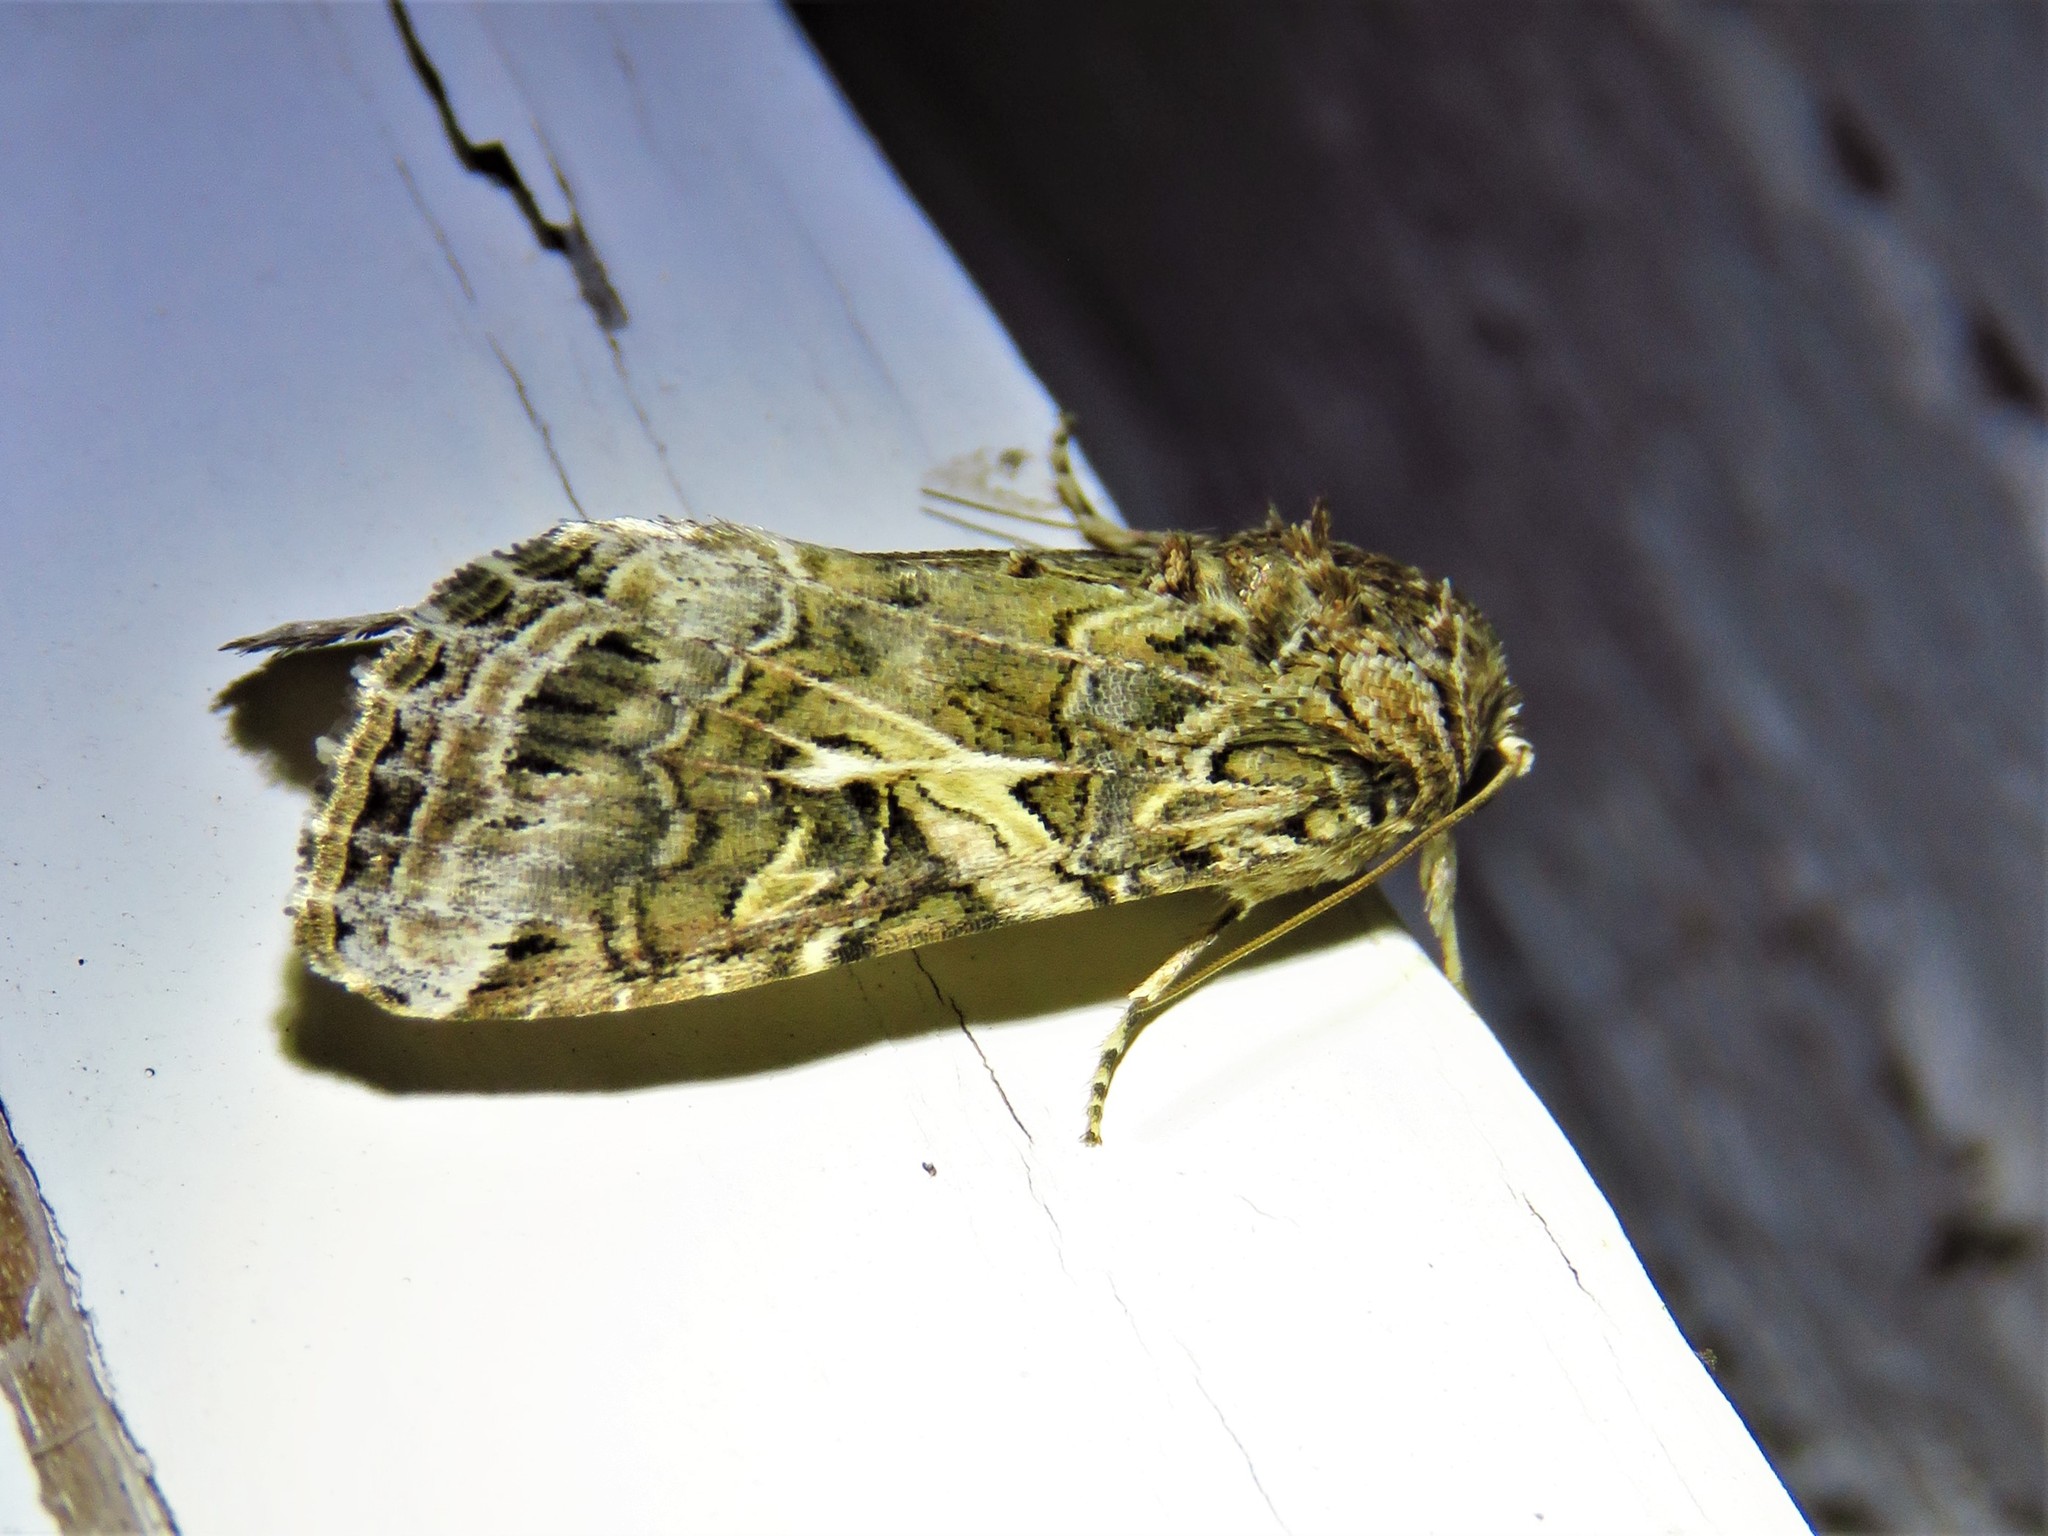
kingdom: Animalia
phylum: Arthropoda
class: Insecta
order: Lepidoptera
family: Noctuidae
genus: Spodoptera
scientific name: Spodoptera ornithogalli
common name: Yellow-striped armyworm
